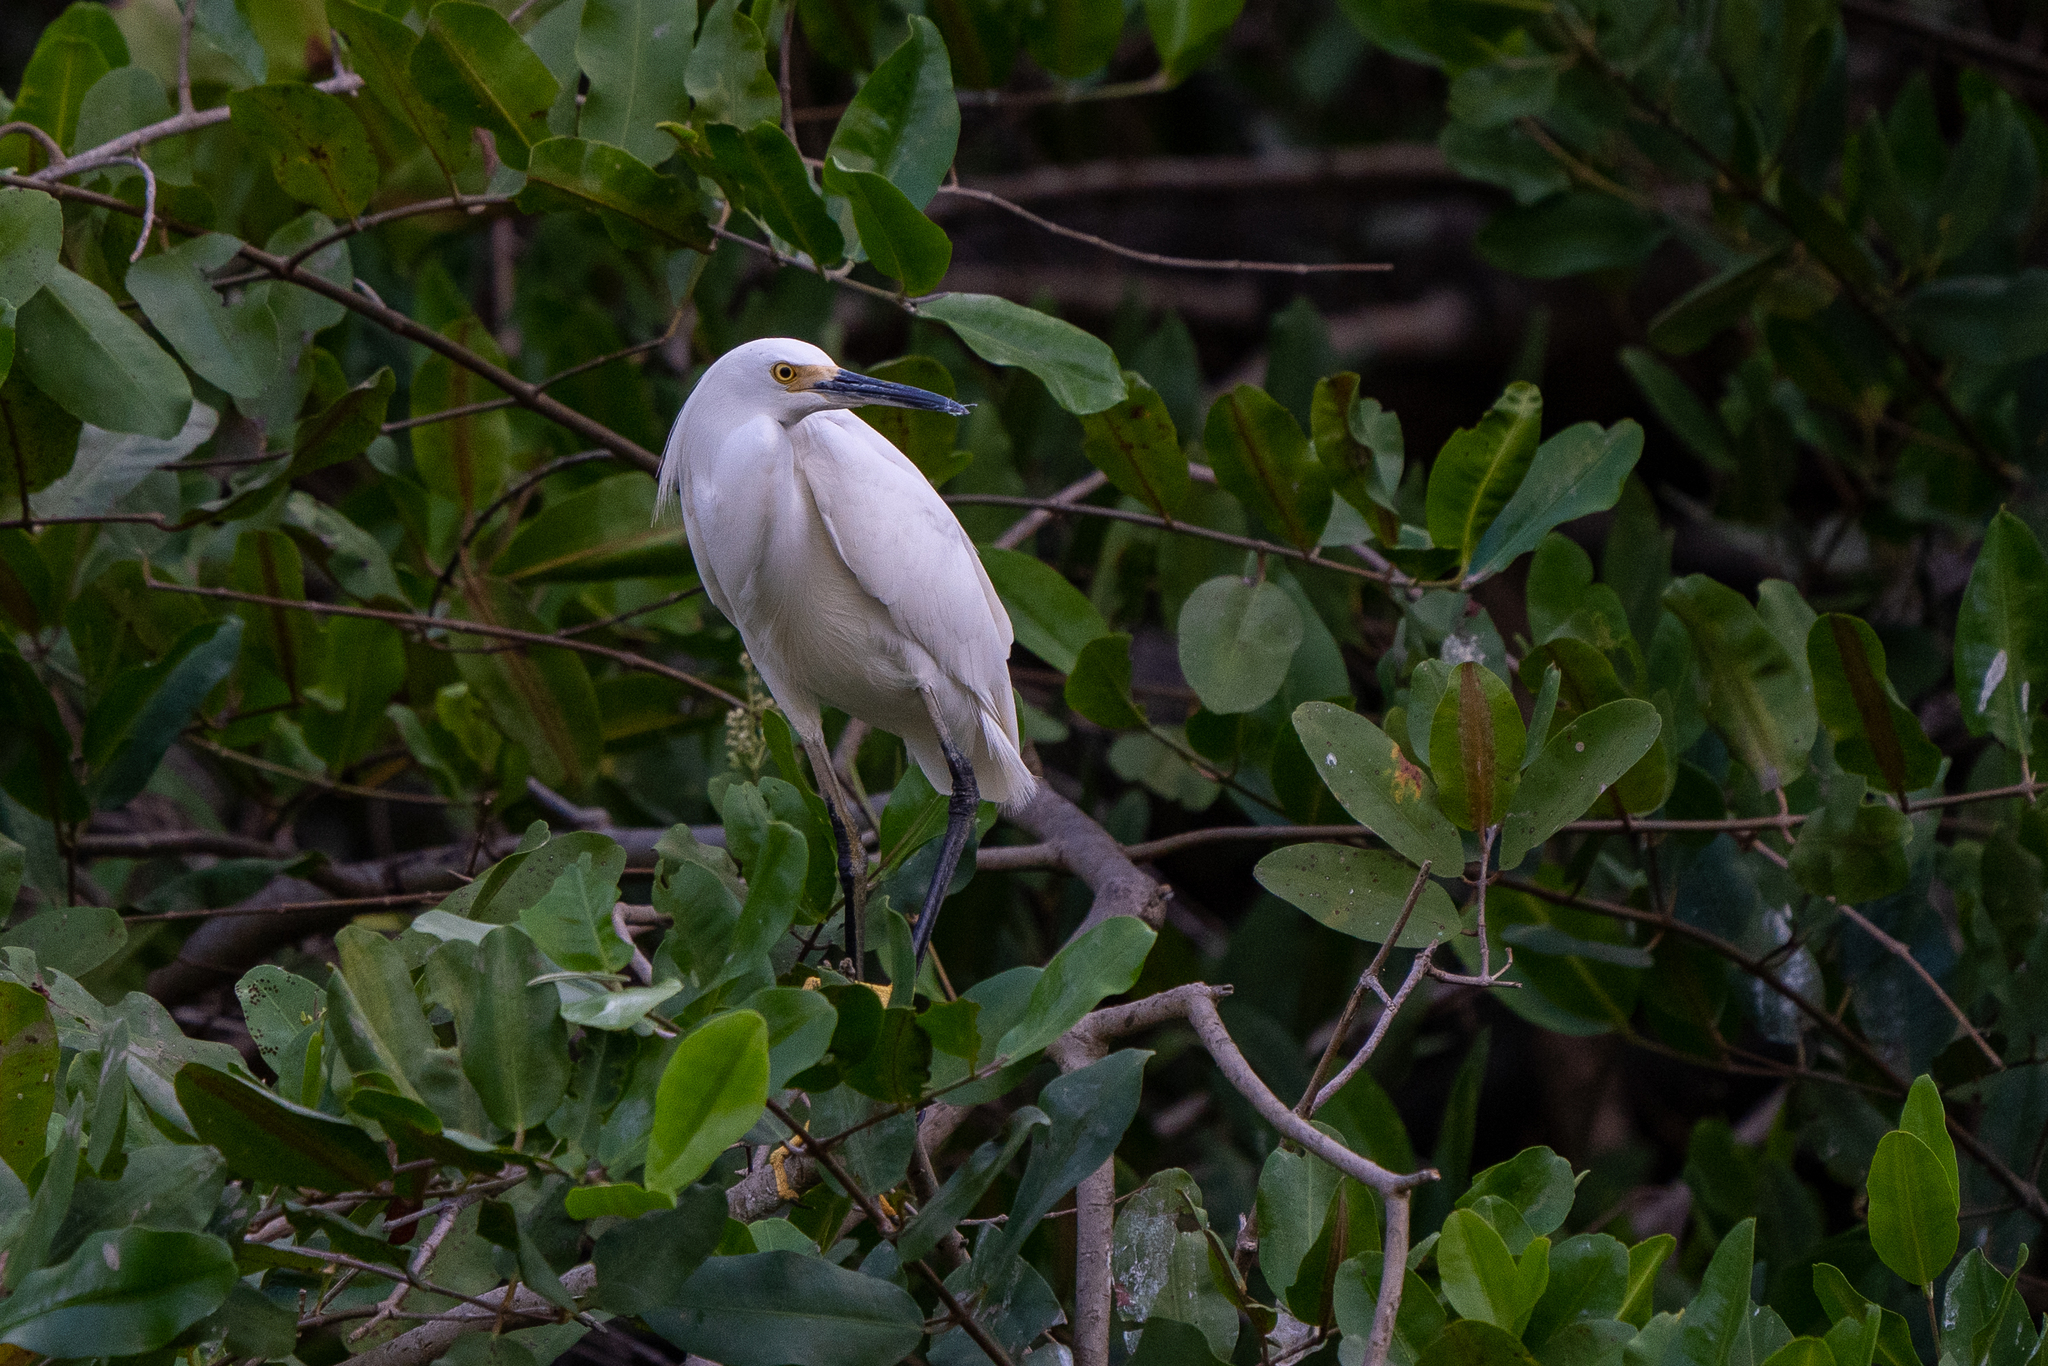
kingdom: Animalia
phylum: Chordata
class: Aves
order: Pelecaniformes
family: Ardeidae
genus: Egretta
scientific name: Egretta thula
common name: Snowy egret
